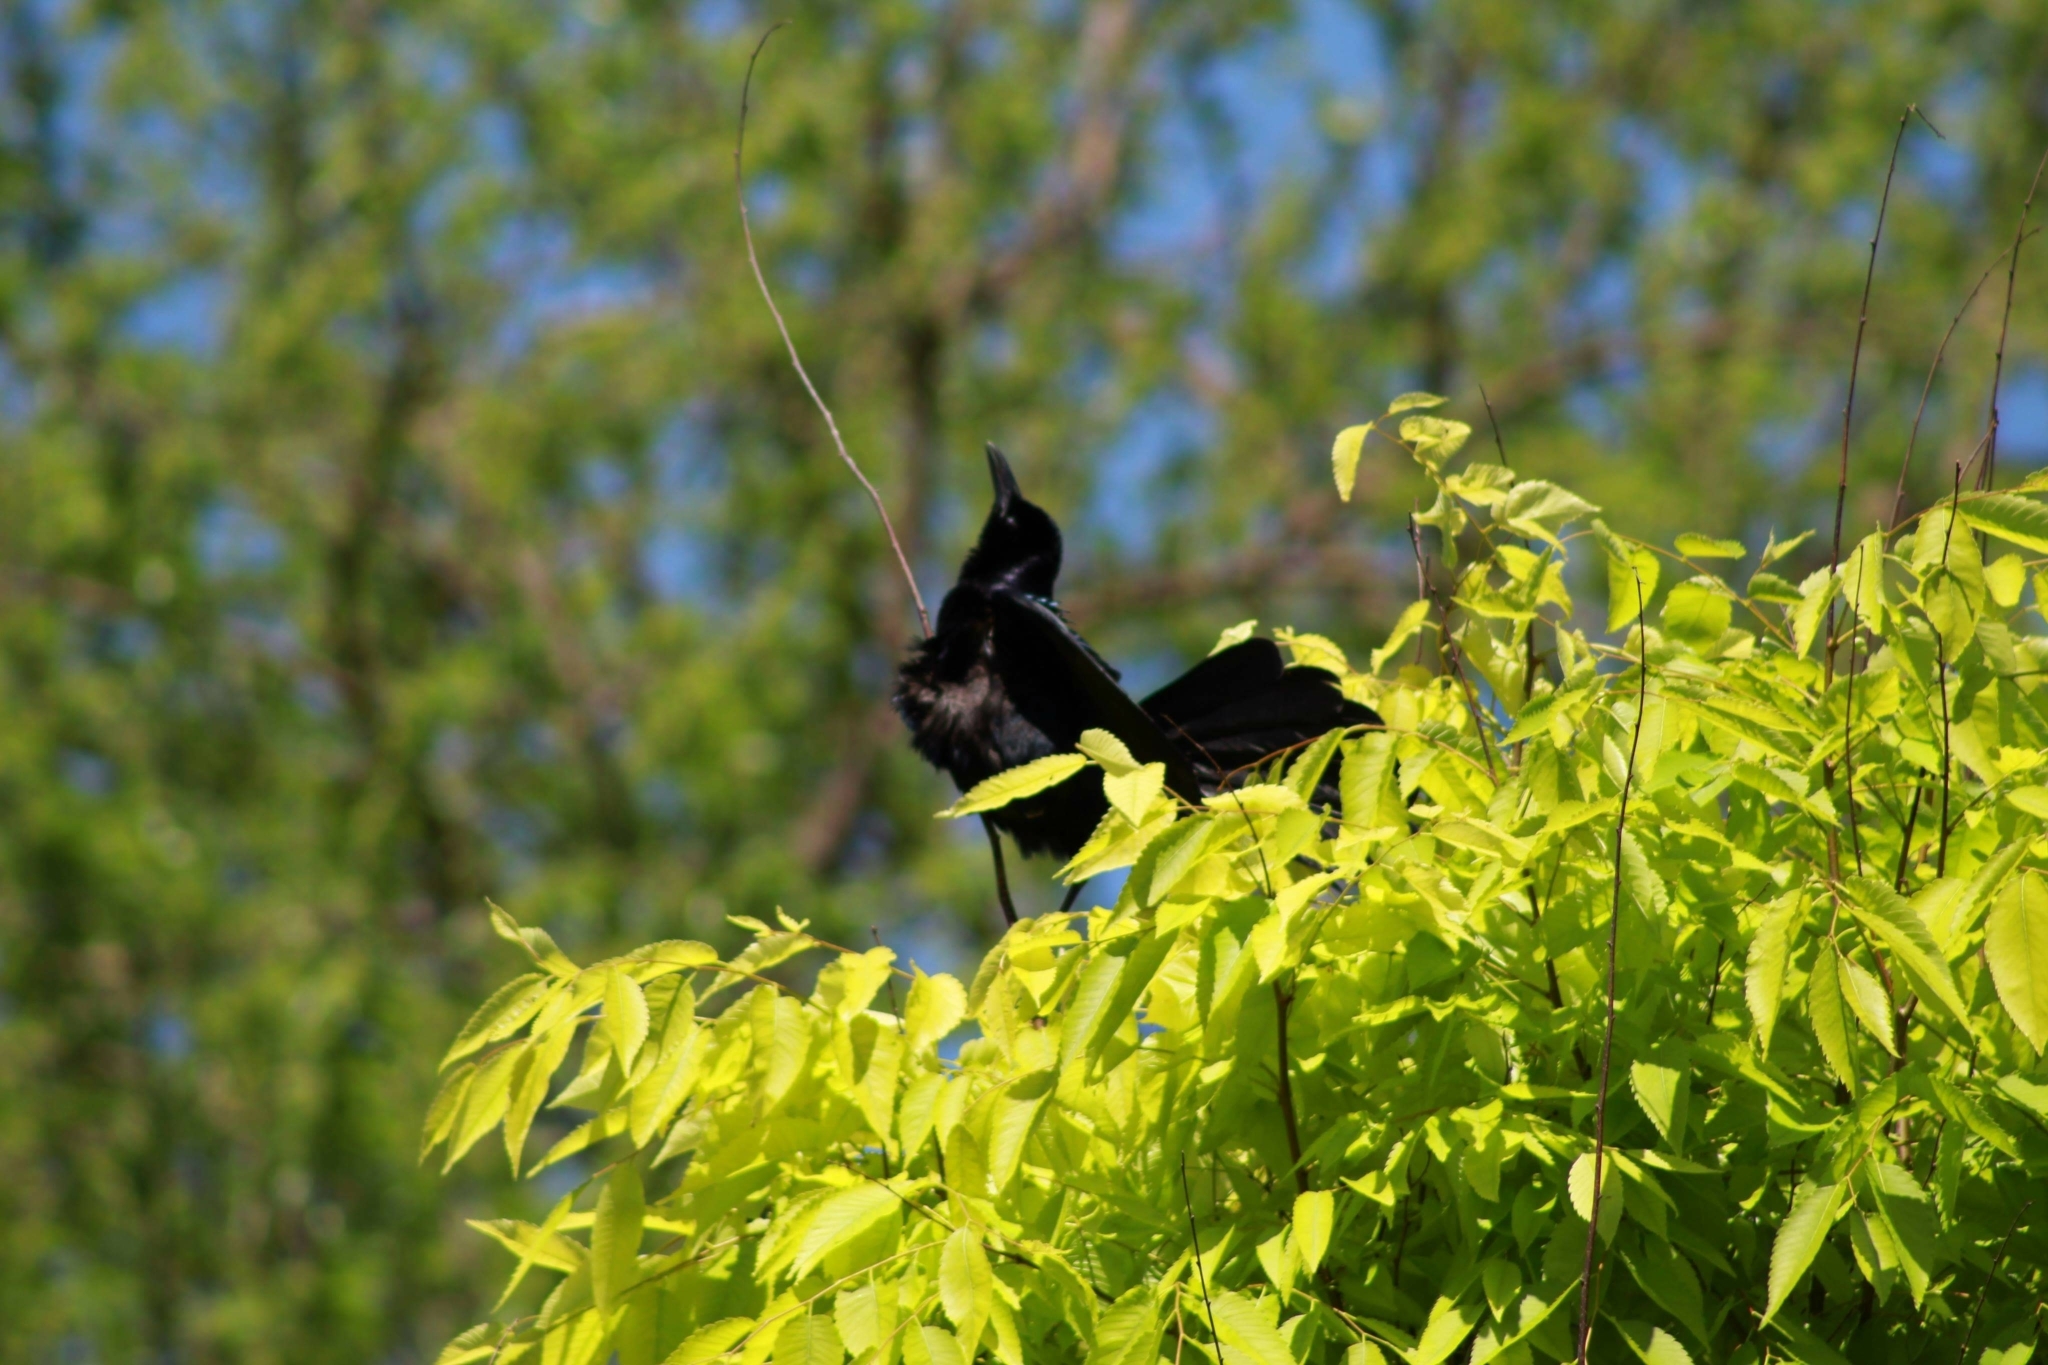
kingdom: Animalia
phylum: Chordata
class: Aves
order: Passeriformes
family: Icteridae
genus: Quiscalus
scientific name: Quiscalus mexicanus
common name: Great-tailed grackle
